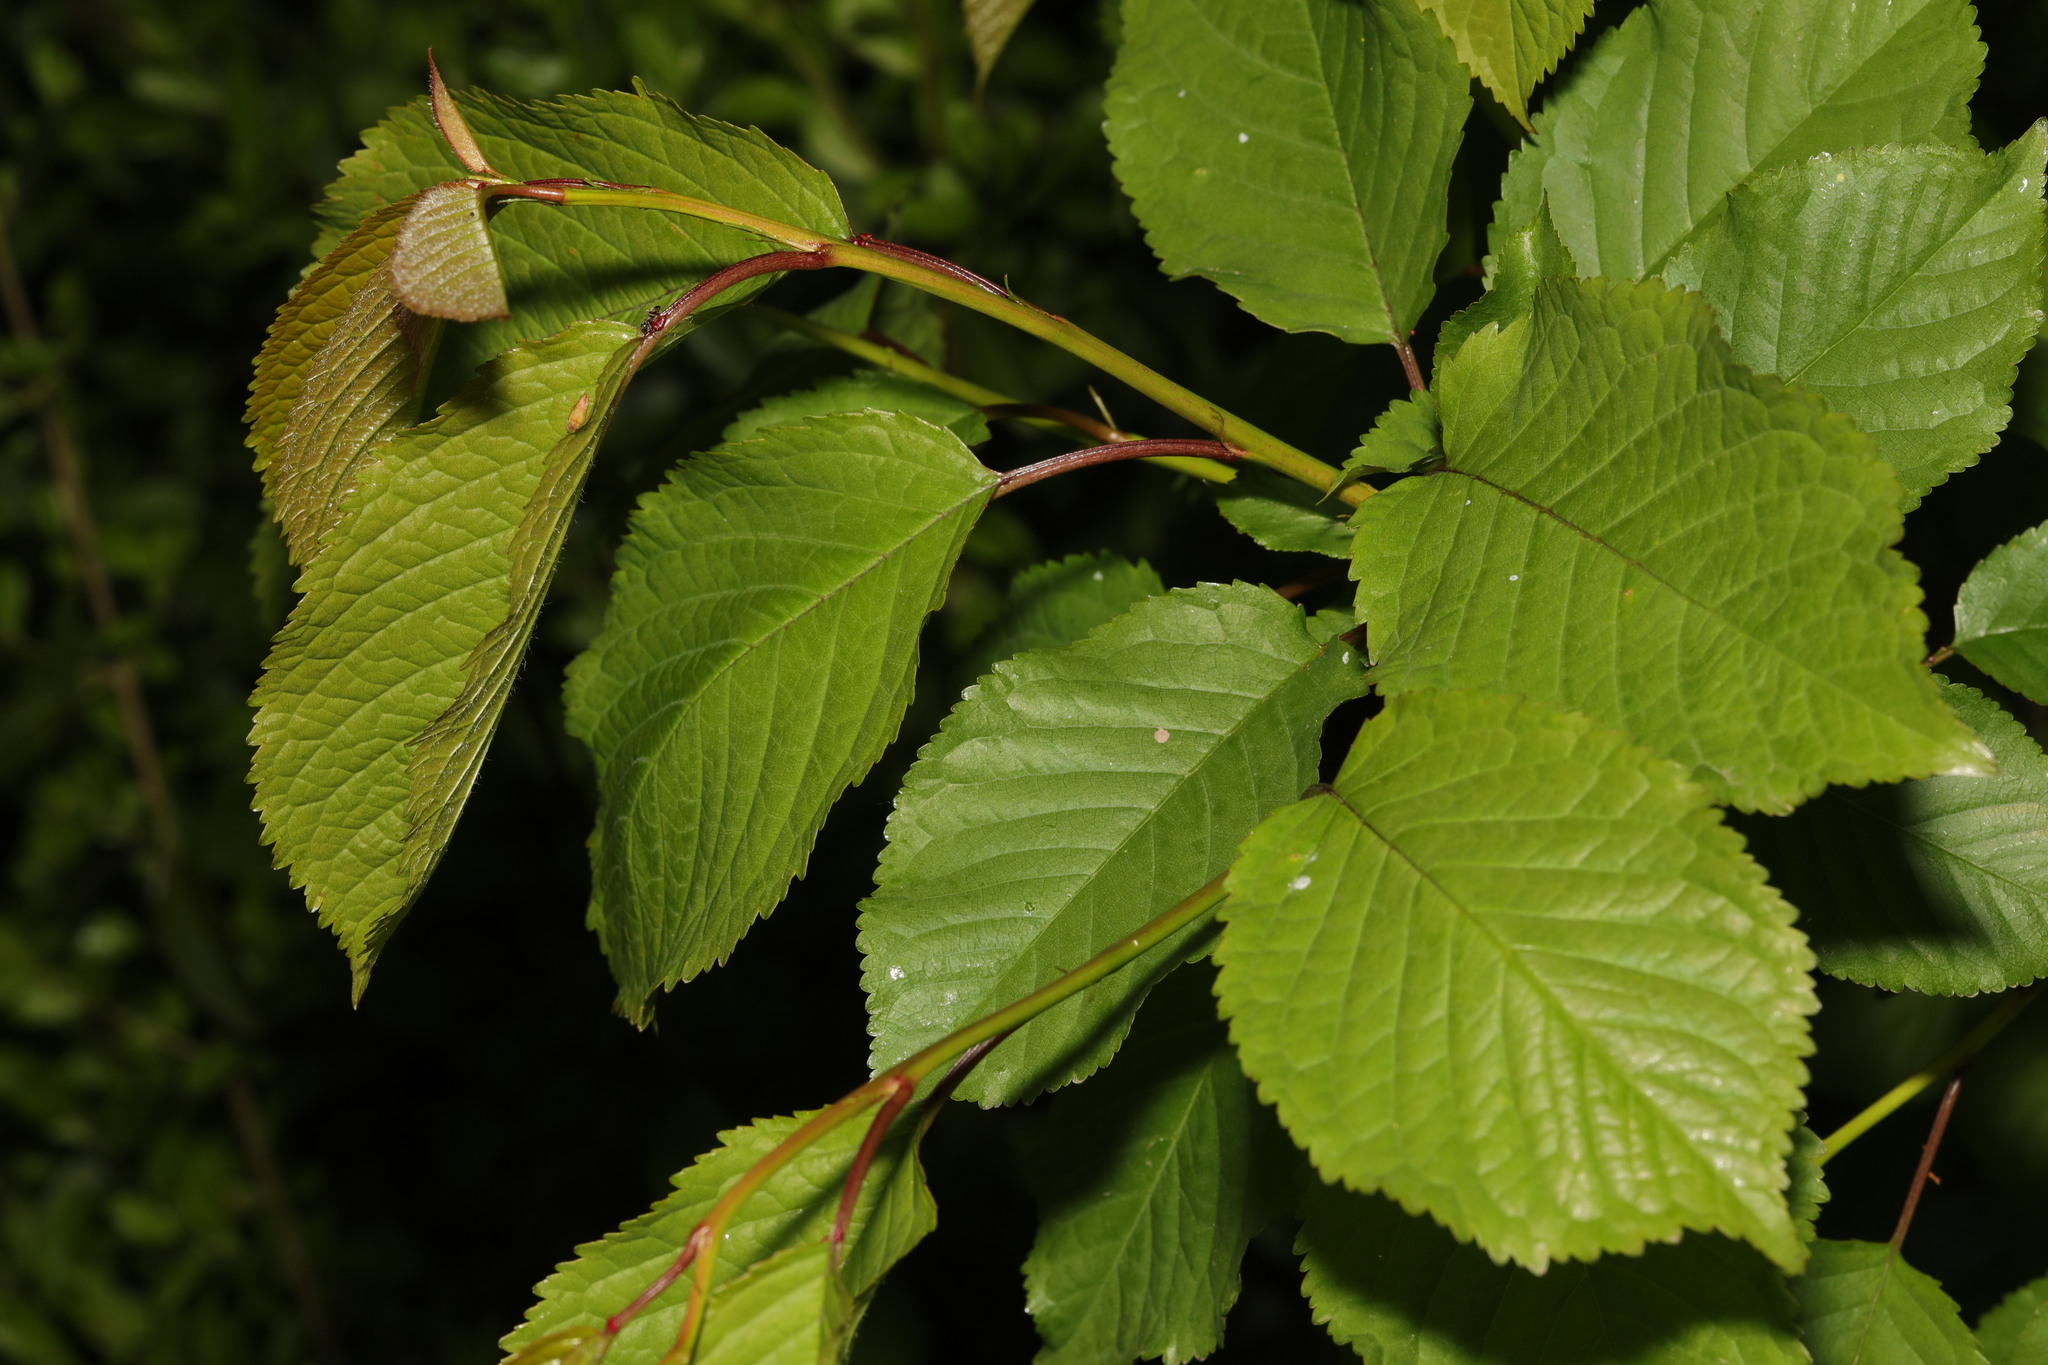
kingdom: Plantae
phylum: Tracheophyta
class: Magnoliopsida
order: Rosales
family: Rosaceae
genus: Prunus
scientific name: Prunus avium
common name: Sweet cherry
